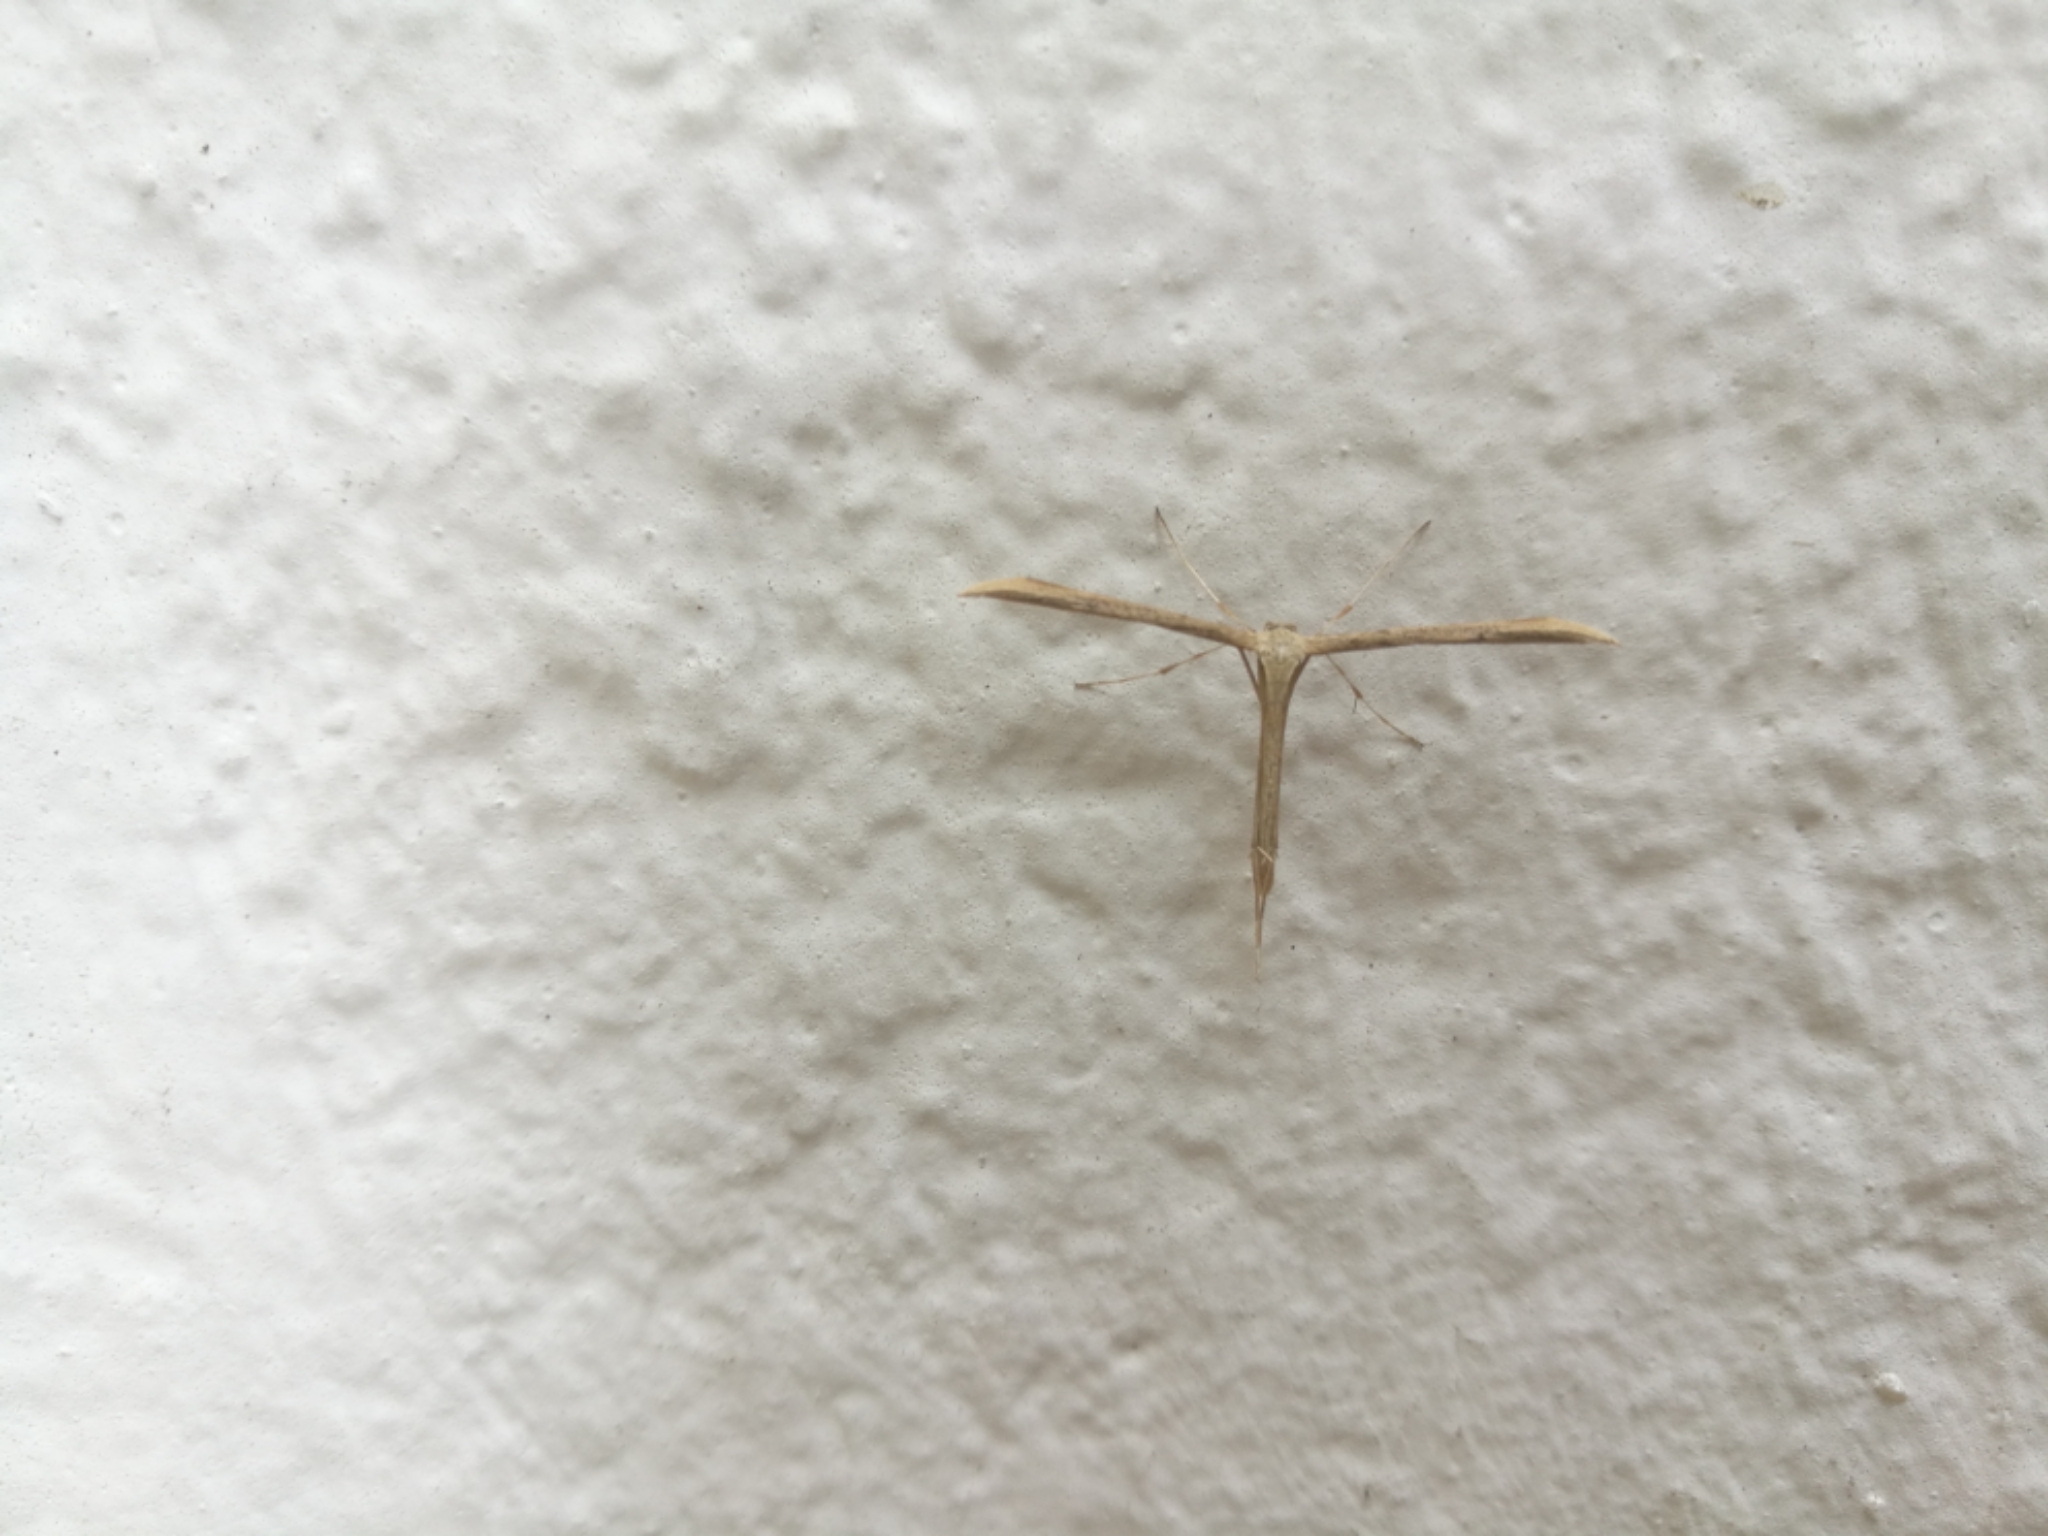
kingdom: Animalia
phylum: Arthropoda
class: Insecta
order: Lepidoptera
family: Pterophoridae
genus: Emmelina
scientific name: Emmelina monodactyla
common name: Common plume
